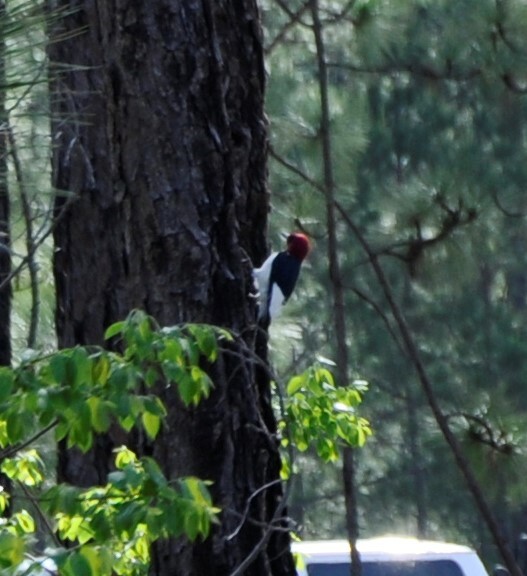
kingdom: Animalia
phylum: Chordata
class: Aves
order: Piciformes
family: Picidae
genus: Melanerpes
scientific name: Melanerpes erythrocephalus
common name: Red-headed woodpecker
